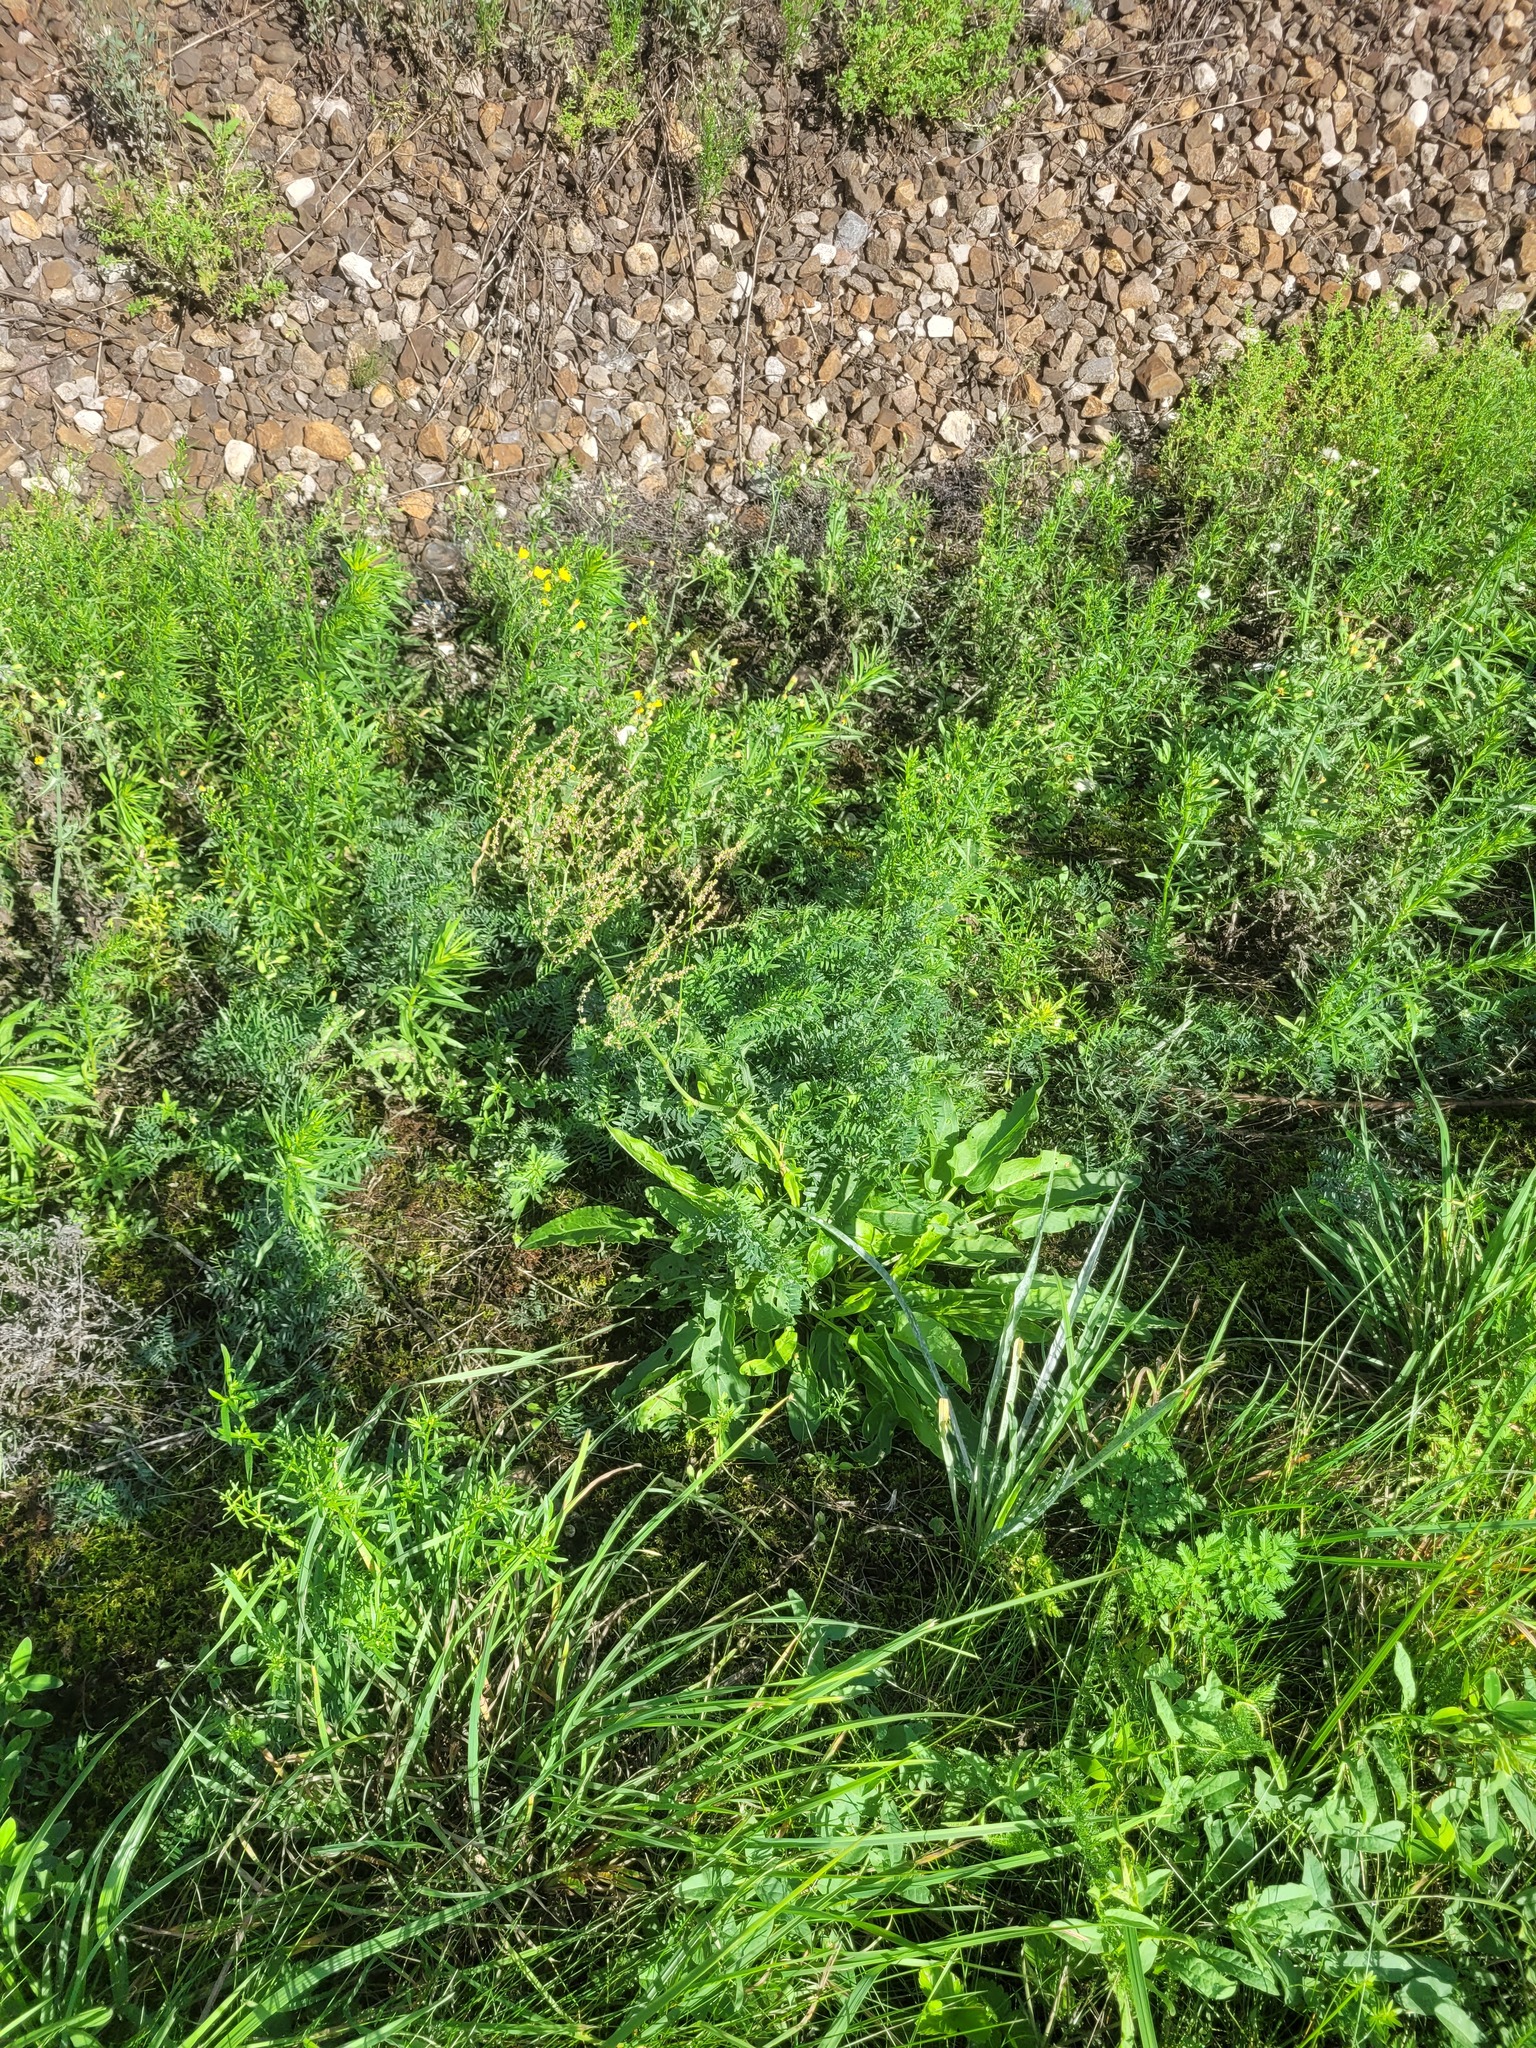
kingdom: Plantae
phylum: Tracheophyta
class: Magnoliopsida
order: Caryophyllales
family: Polygonaceae
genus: Rumex
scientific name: Rumex thyrsiflorus
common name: Garden sorrel
